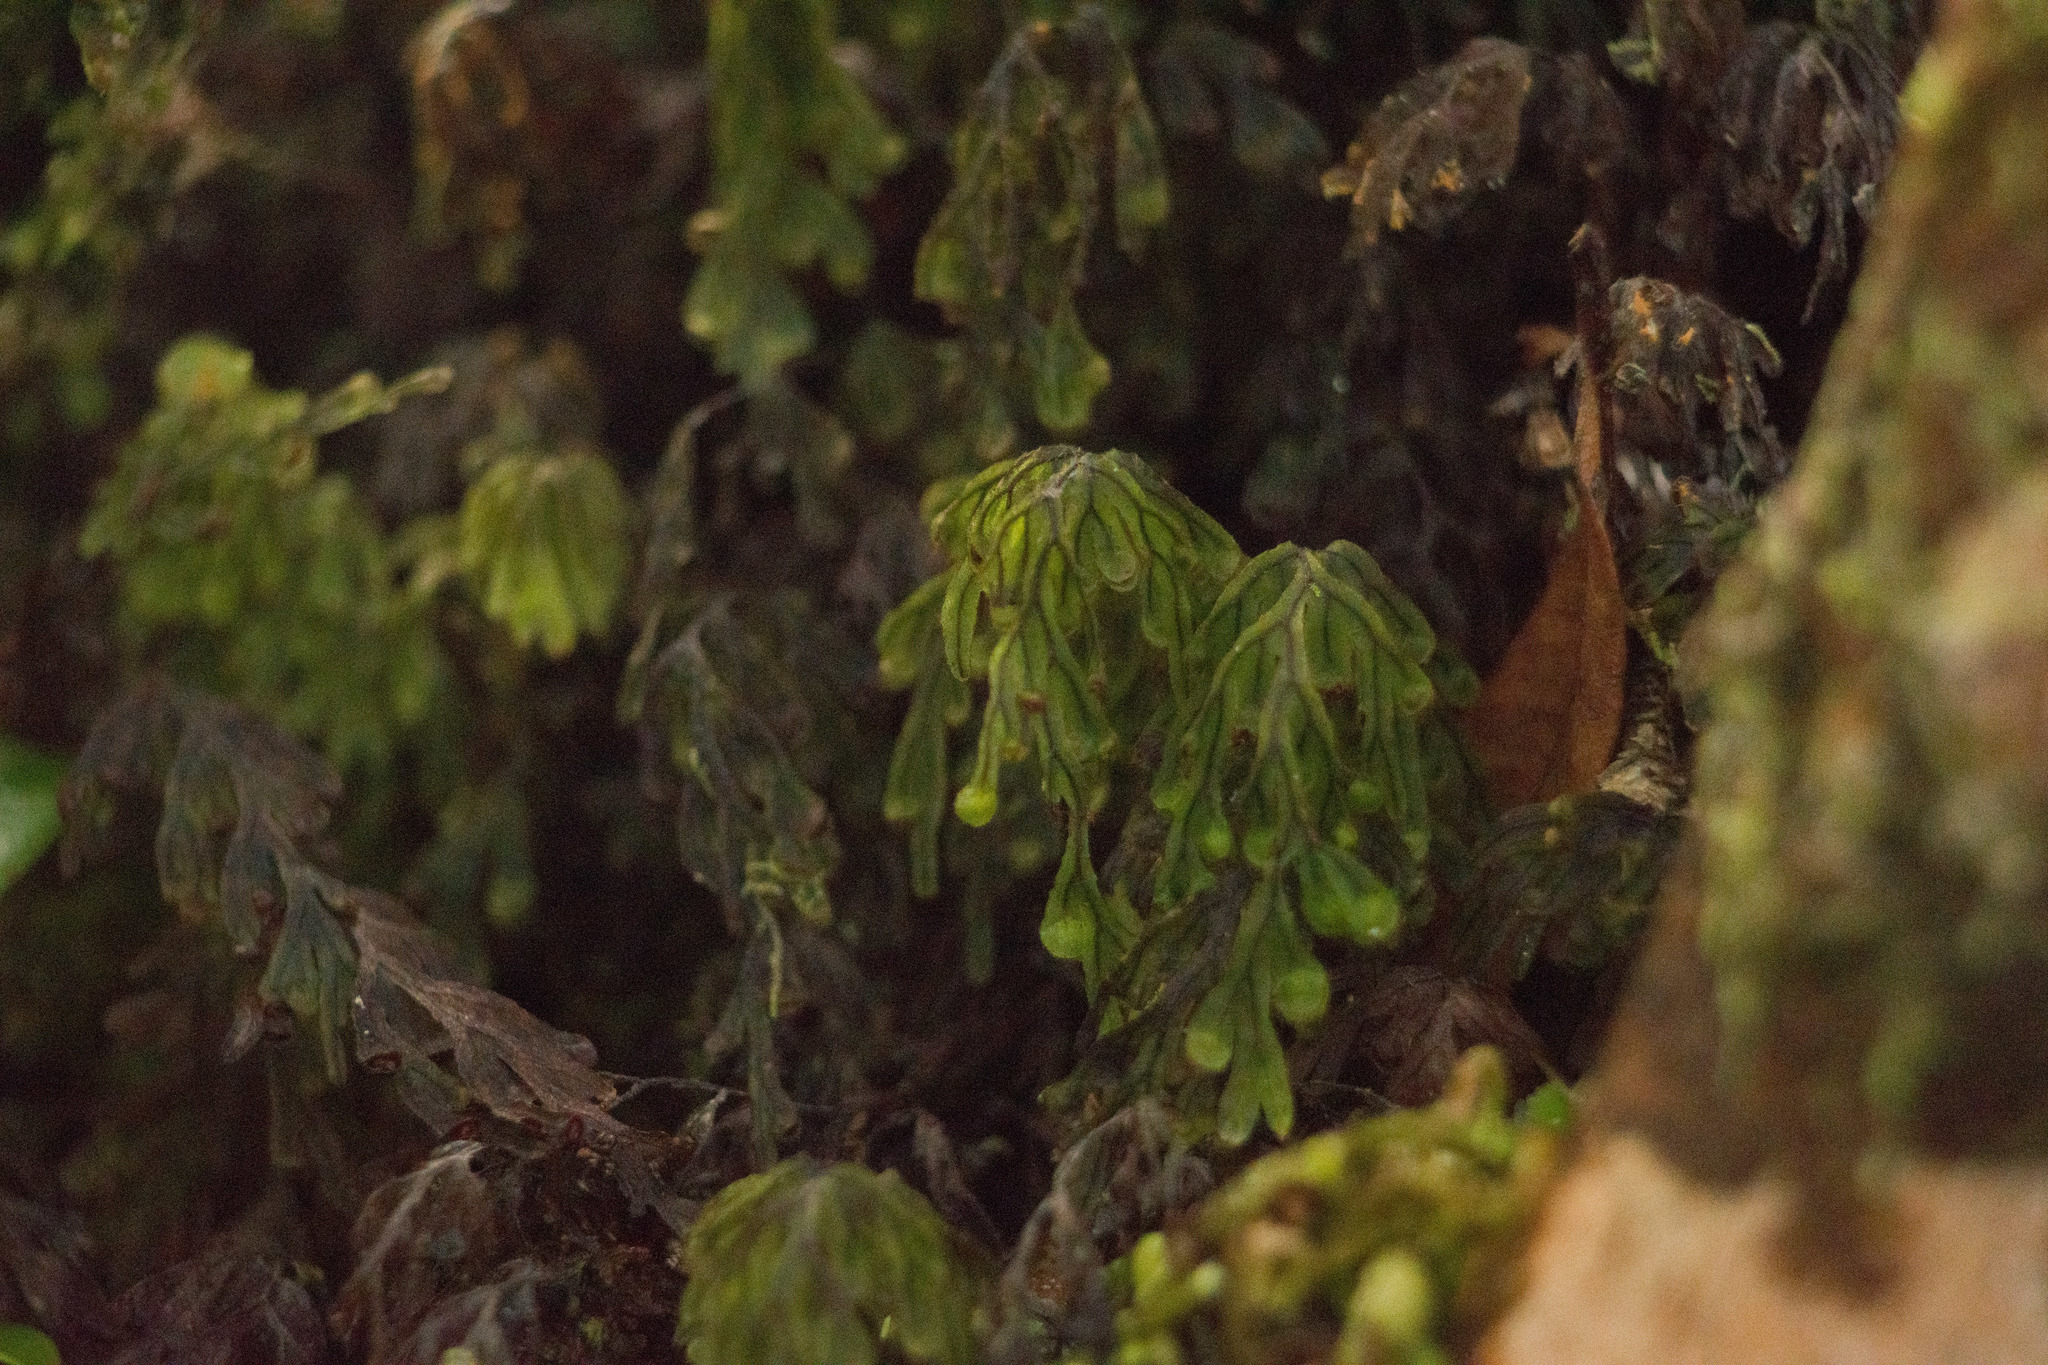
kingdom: Plantae
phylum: Tracheophyta
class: Polypodiopsida
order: Hymenophyllales
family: Hymenophyllaceae
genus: Hymenophyllum
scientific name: Hymenophyllum lanceolatum
